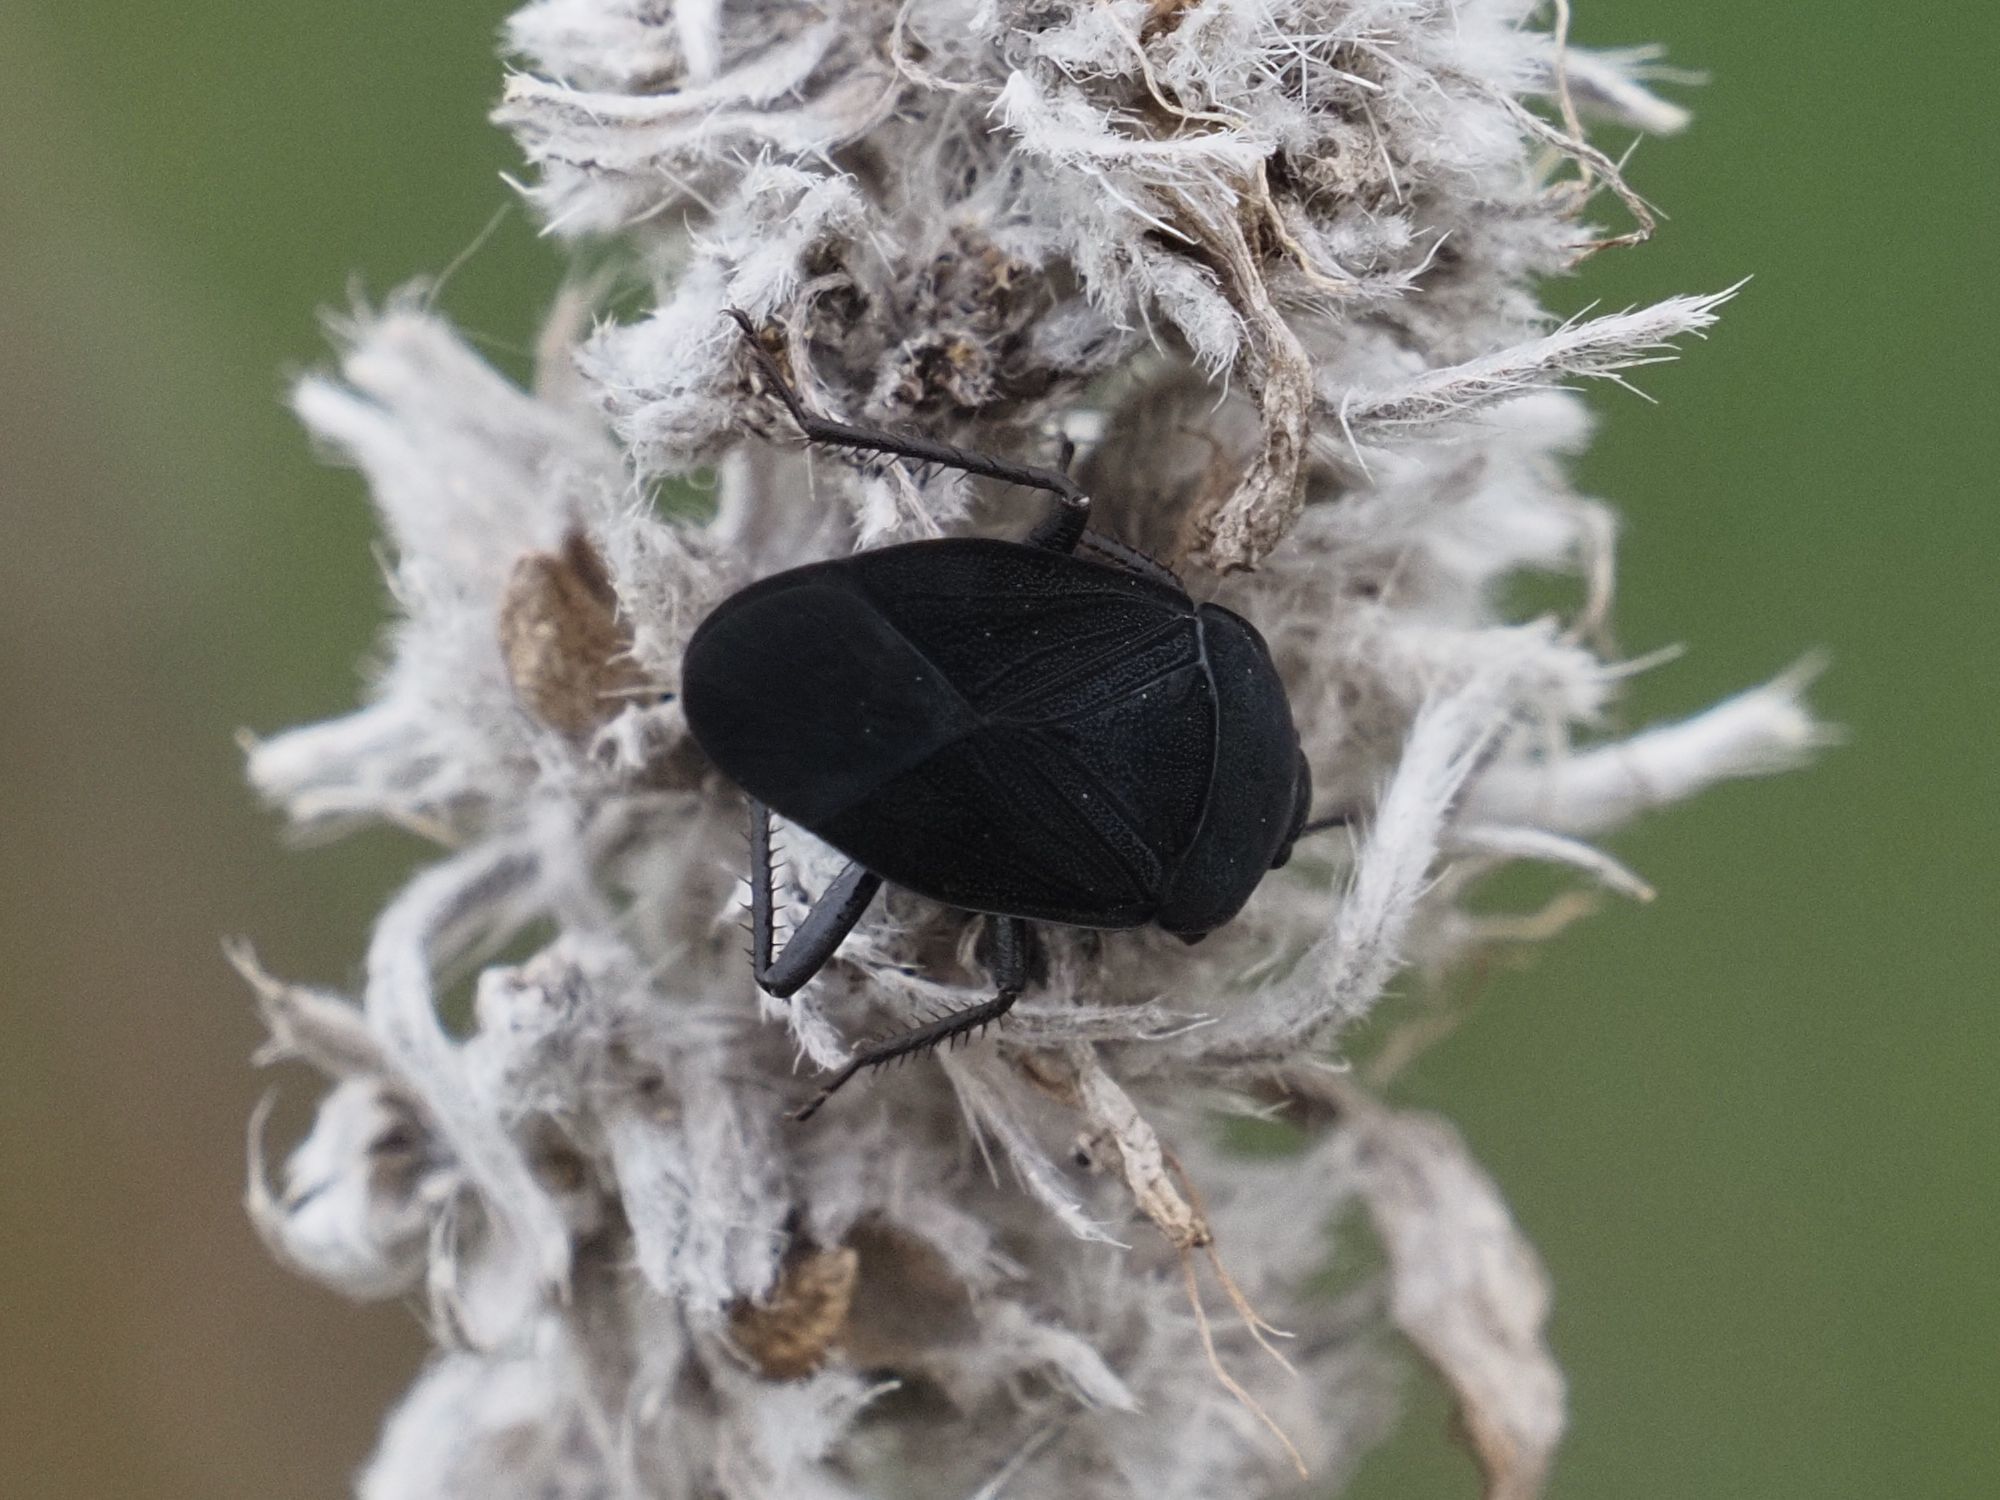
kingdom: Animalia
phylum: Arthropoda
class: Insecta
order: Hemiptera
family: Rhyparochromidae
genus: Aellopus
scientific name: Aellopus atratus
